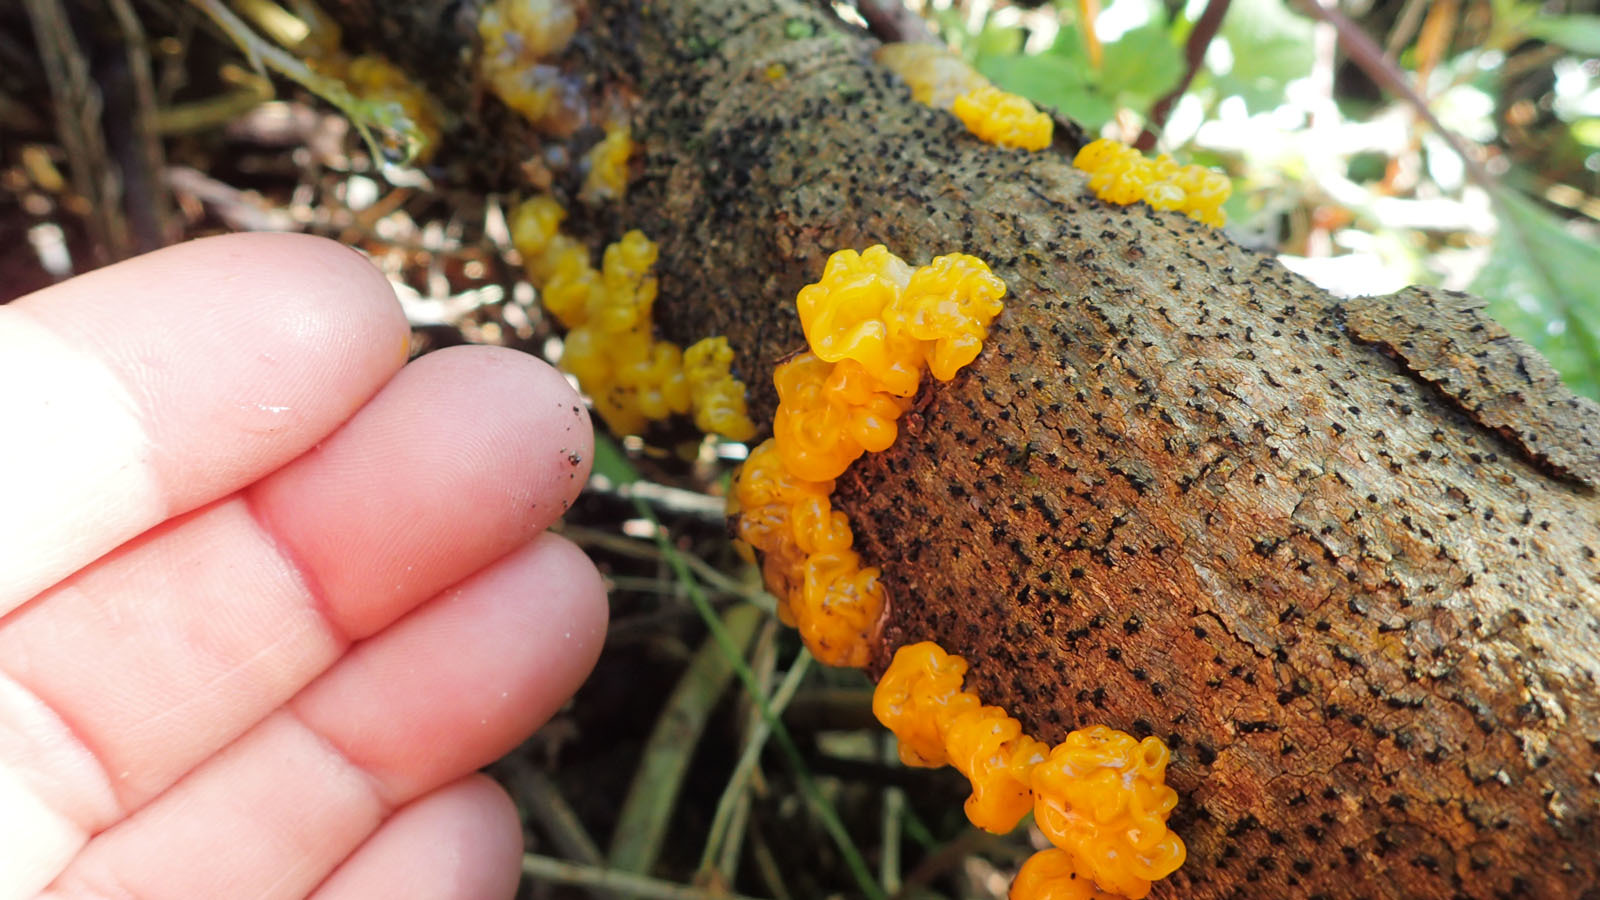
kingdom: Fungi
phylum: Basidiomycota
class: Tremellomycetes
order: Tremellales
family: Tremellaceae
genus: Tremella
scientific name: Tremella mesenterica
